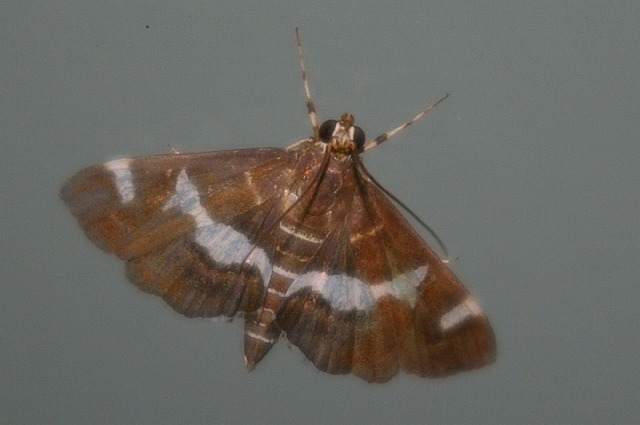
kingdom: Animalia
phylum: Arthropoda
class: Insecta
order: Lepidoptera
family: Crambidae
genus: Spoladea
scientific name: Spoladea recurvalis
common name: Beet webworm moth
